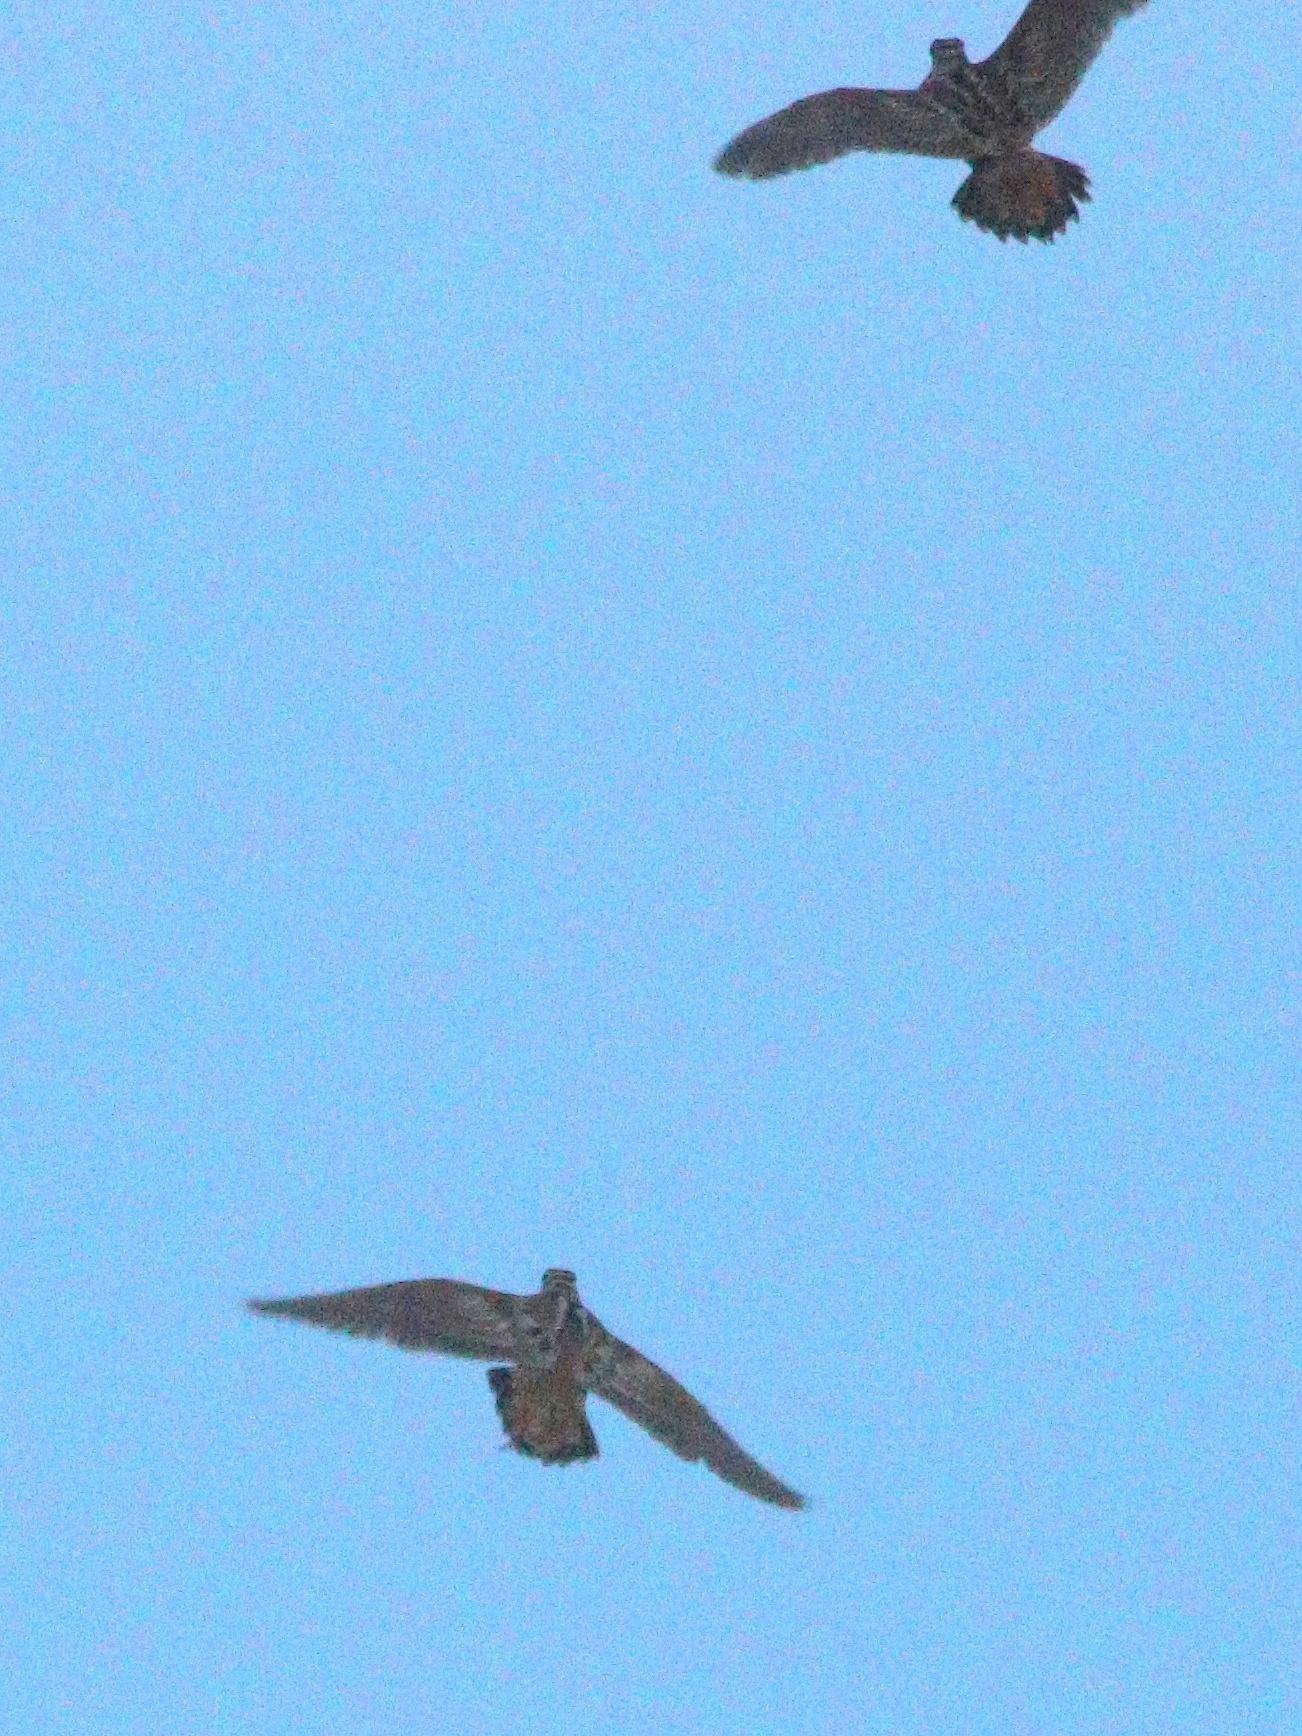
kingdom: Animalia
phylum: Chordata
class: Aves
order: Charadriiformes
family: Scolopacidae
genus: Scolopax
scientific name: Scolopax rusticola
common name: Eurasian woodcock
